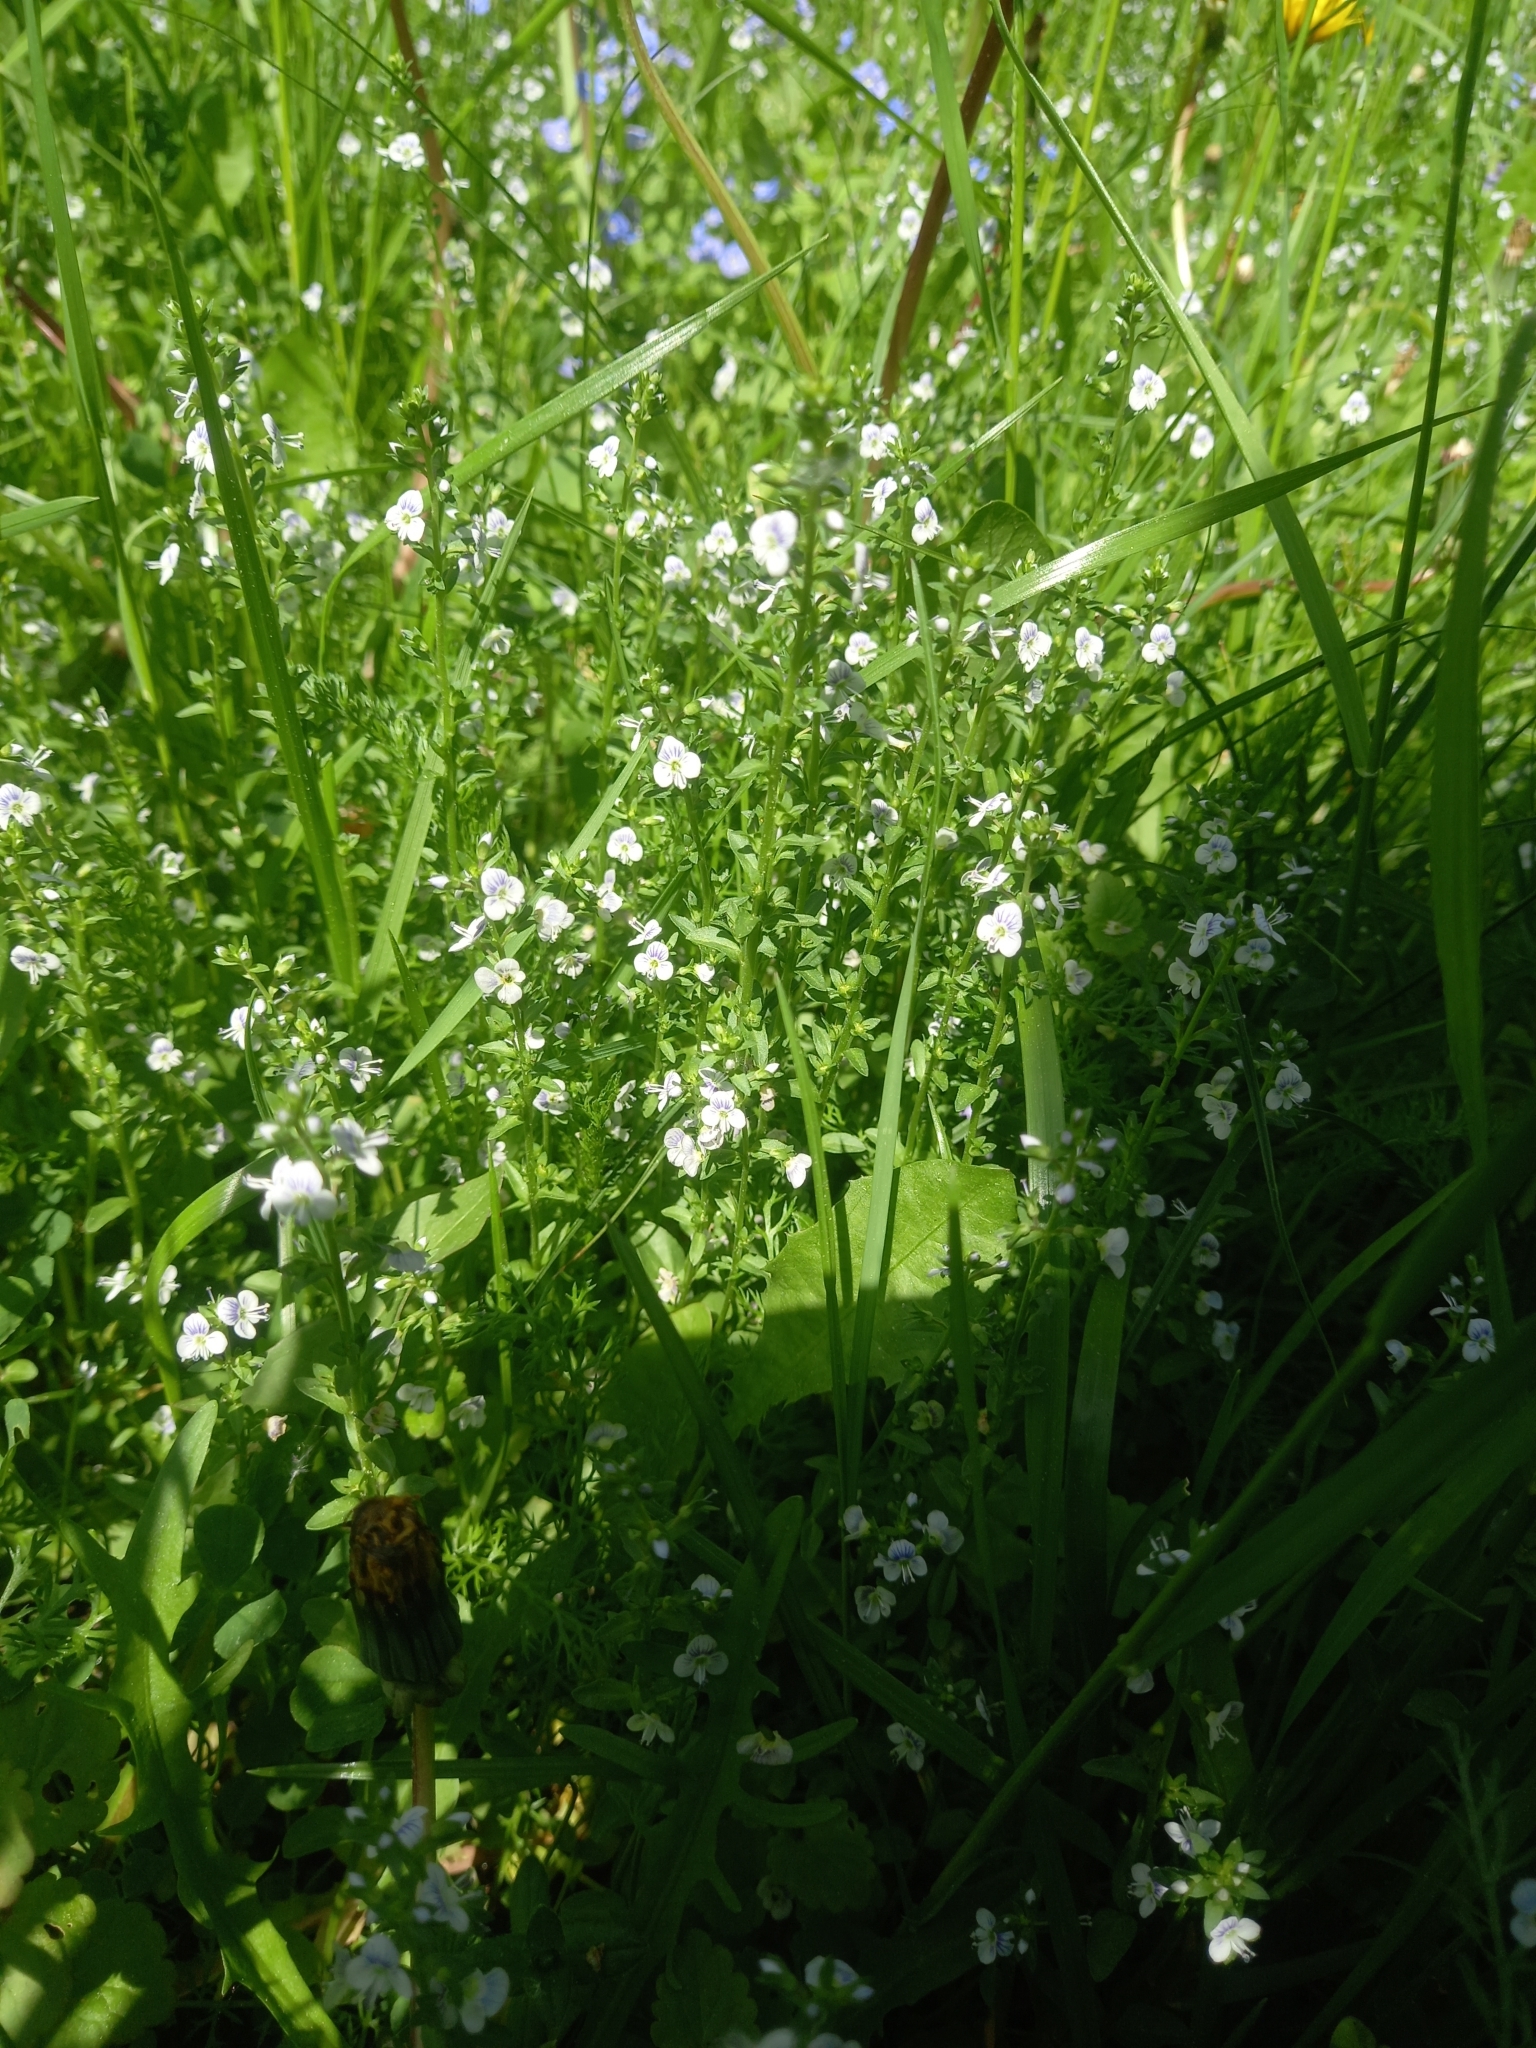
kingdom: Plantae
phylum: Tracheophyta
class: Magnoliopsida
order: Lamiales
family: Plantaginaceae
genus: Veronica
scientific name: Veronica serpyllifolia
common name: Thyme-leaved speedwell
